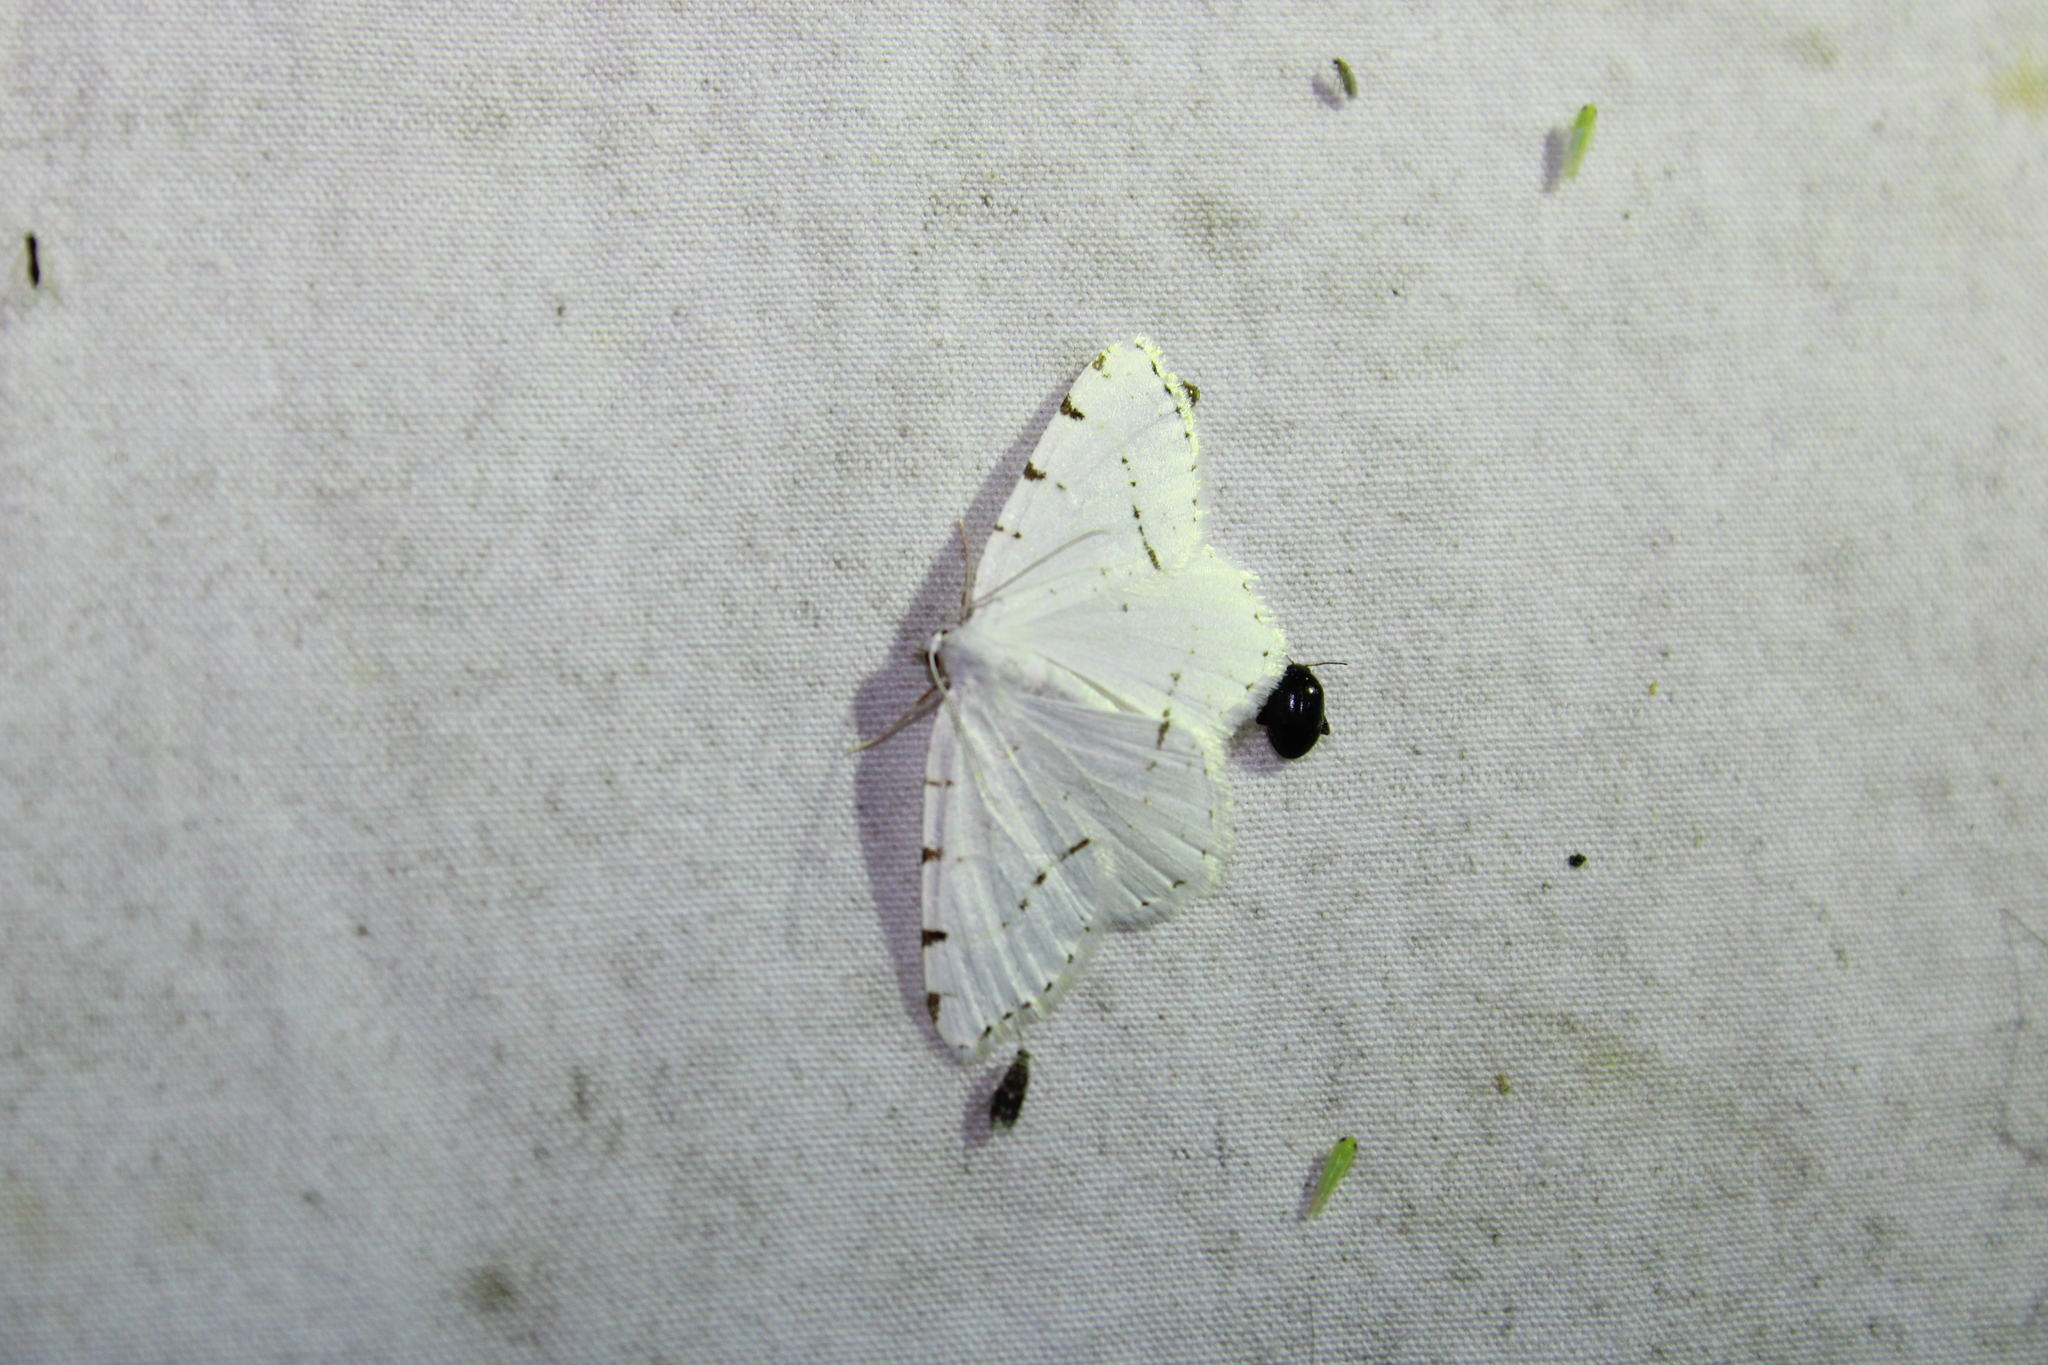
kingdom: Animalia
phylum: Arthropoda
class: Insecta
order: Lepidoptera
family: Geometridae
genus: Macaria
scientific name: Macaria pustularia
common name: Lesser maple spanworm moth
